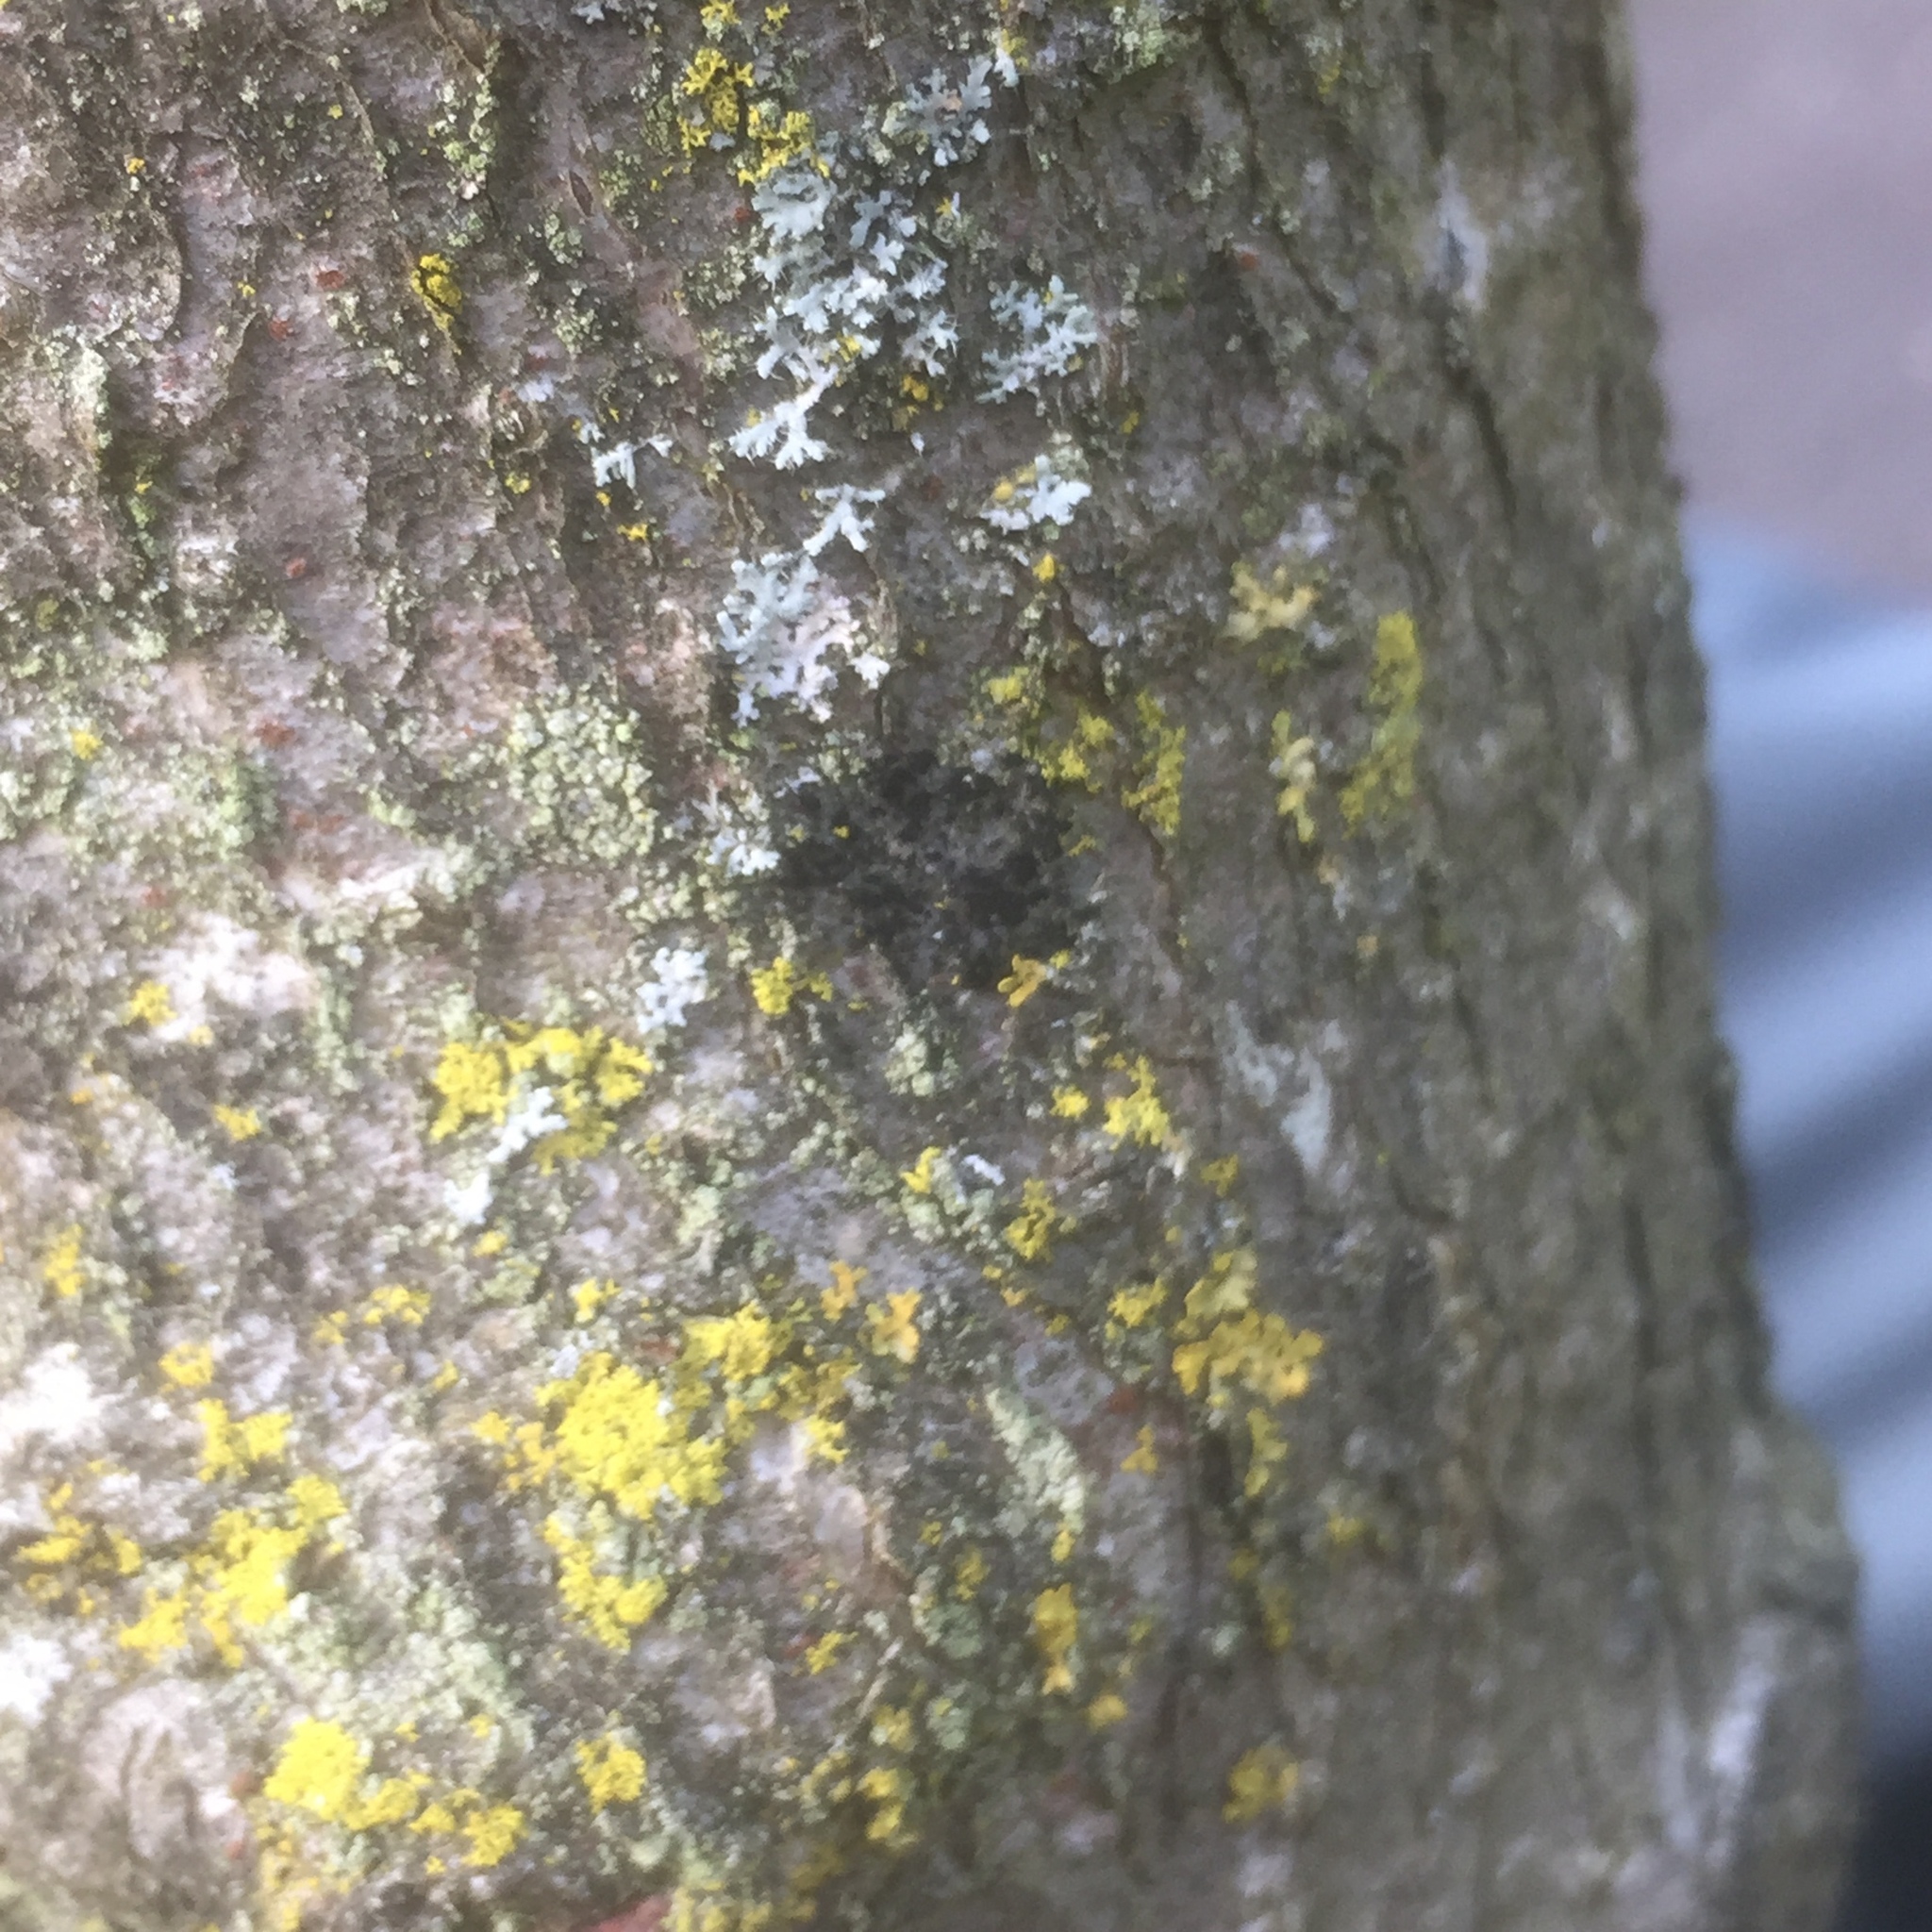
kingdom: Fungi
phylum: Ascomycota
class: Lecanoromycetes
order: Lecanorales
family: Catillariaceae
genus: Catillaria
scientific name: Catillaria fungoides
